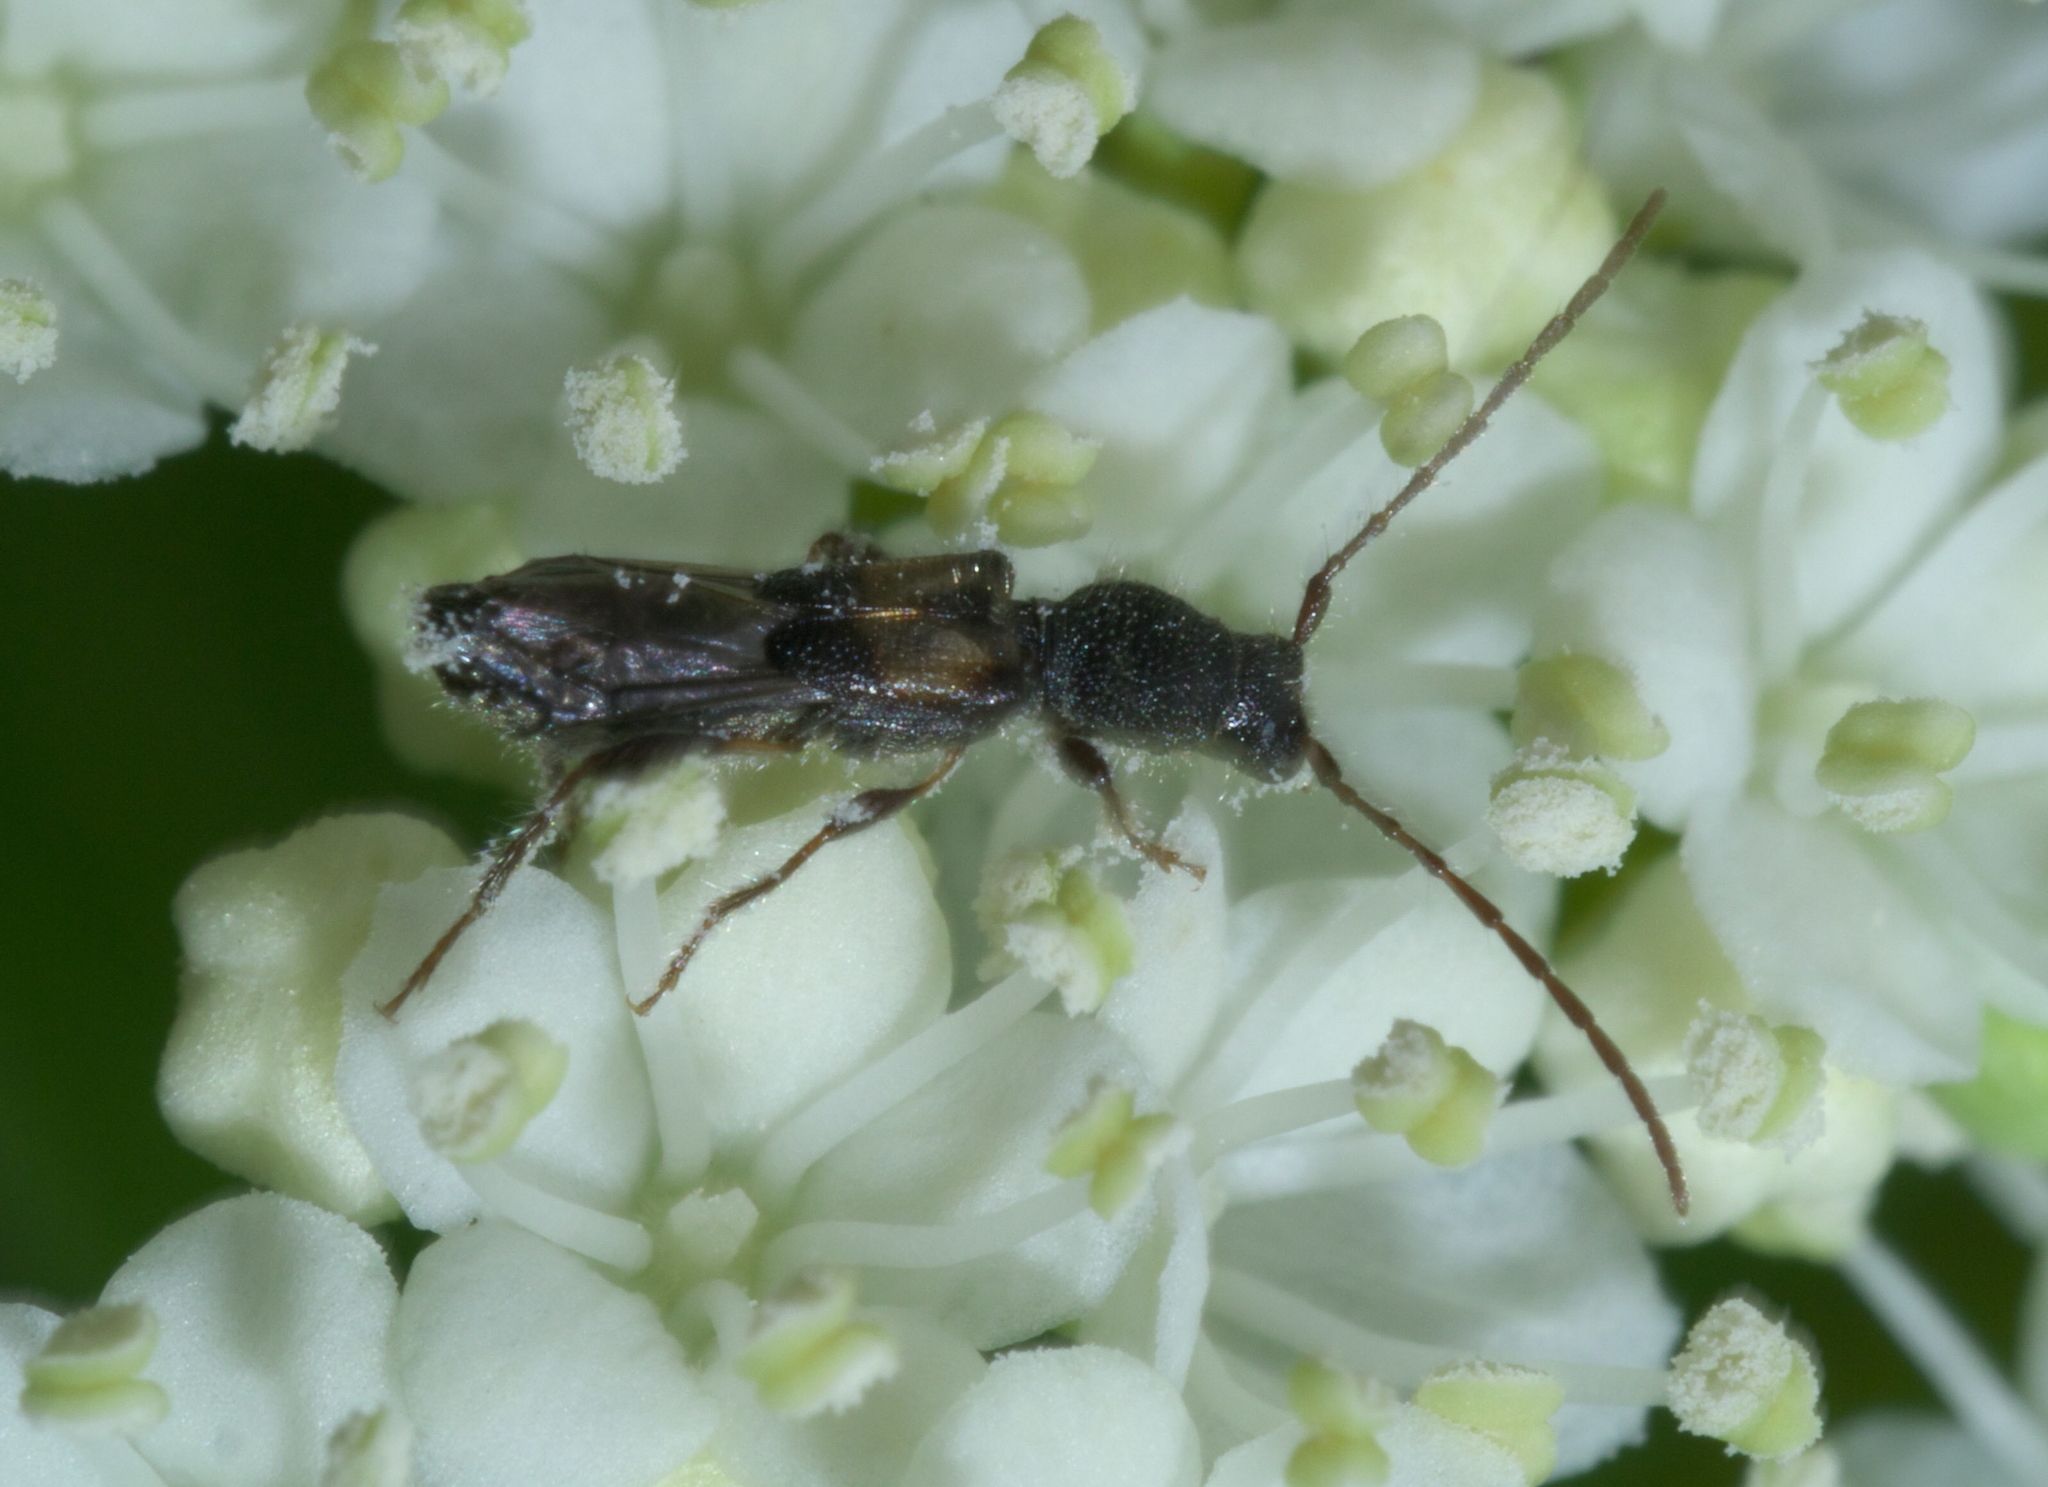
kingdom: Animalia
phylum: Arthropoda
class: Insecta
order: Coleoptera
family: Cerambycidae
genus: Molorchus
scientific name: Molorchus bimaculatus
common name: Bimaculate longhorn beetle
